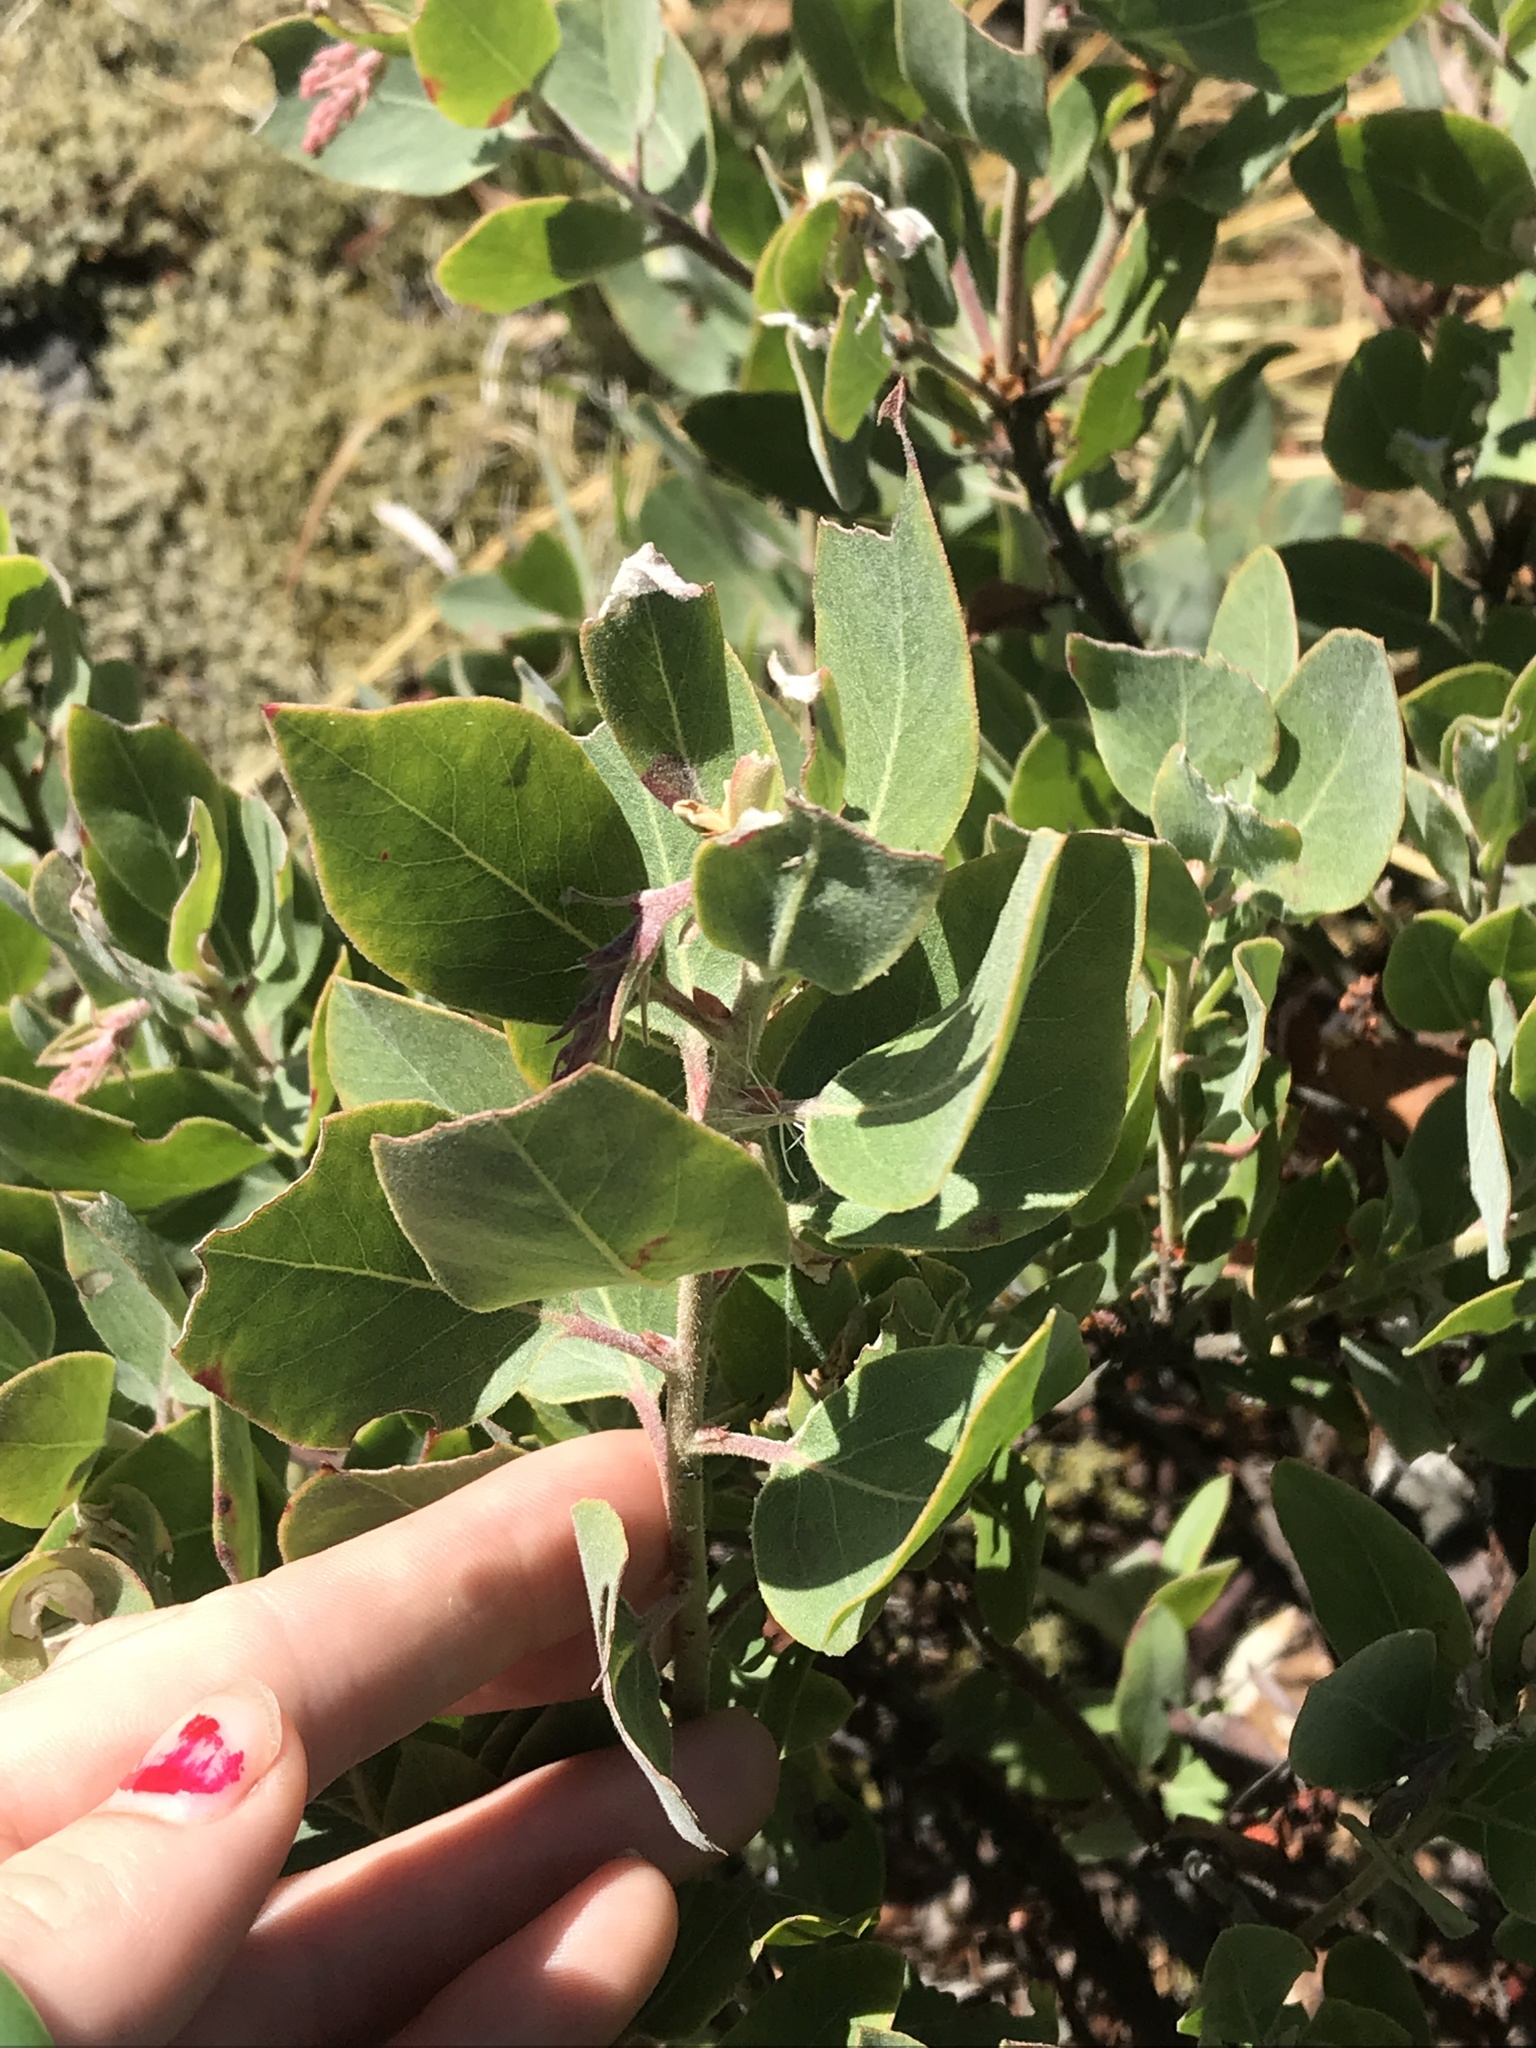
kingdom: Plantae
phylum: Tracheophyta
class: Magnoliopsida
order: Ericales
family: Ericaceae
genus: Arctostaphylos
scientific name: Arctostaphylos columbiana
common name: Bristly bearberry
